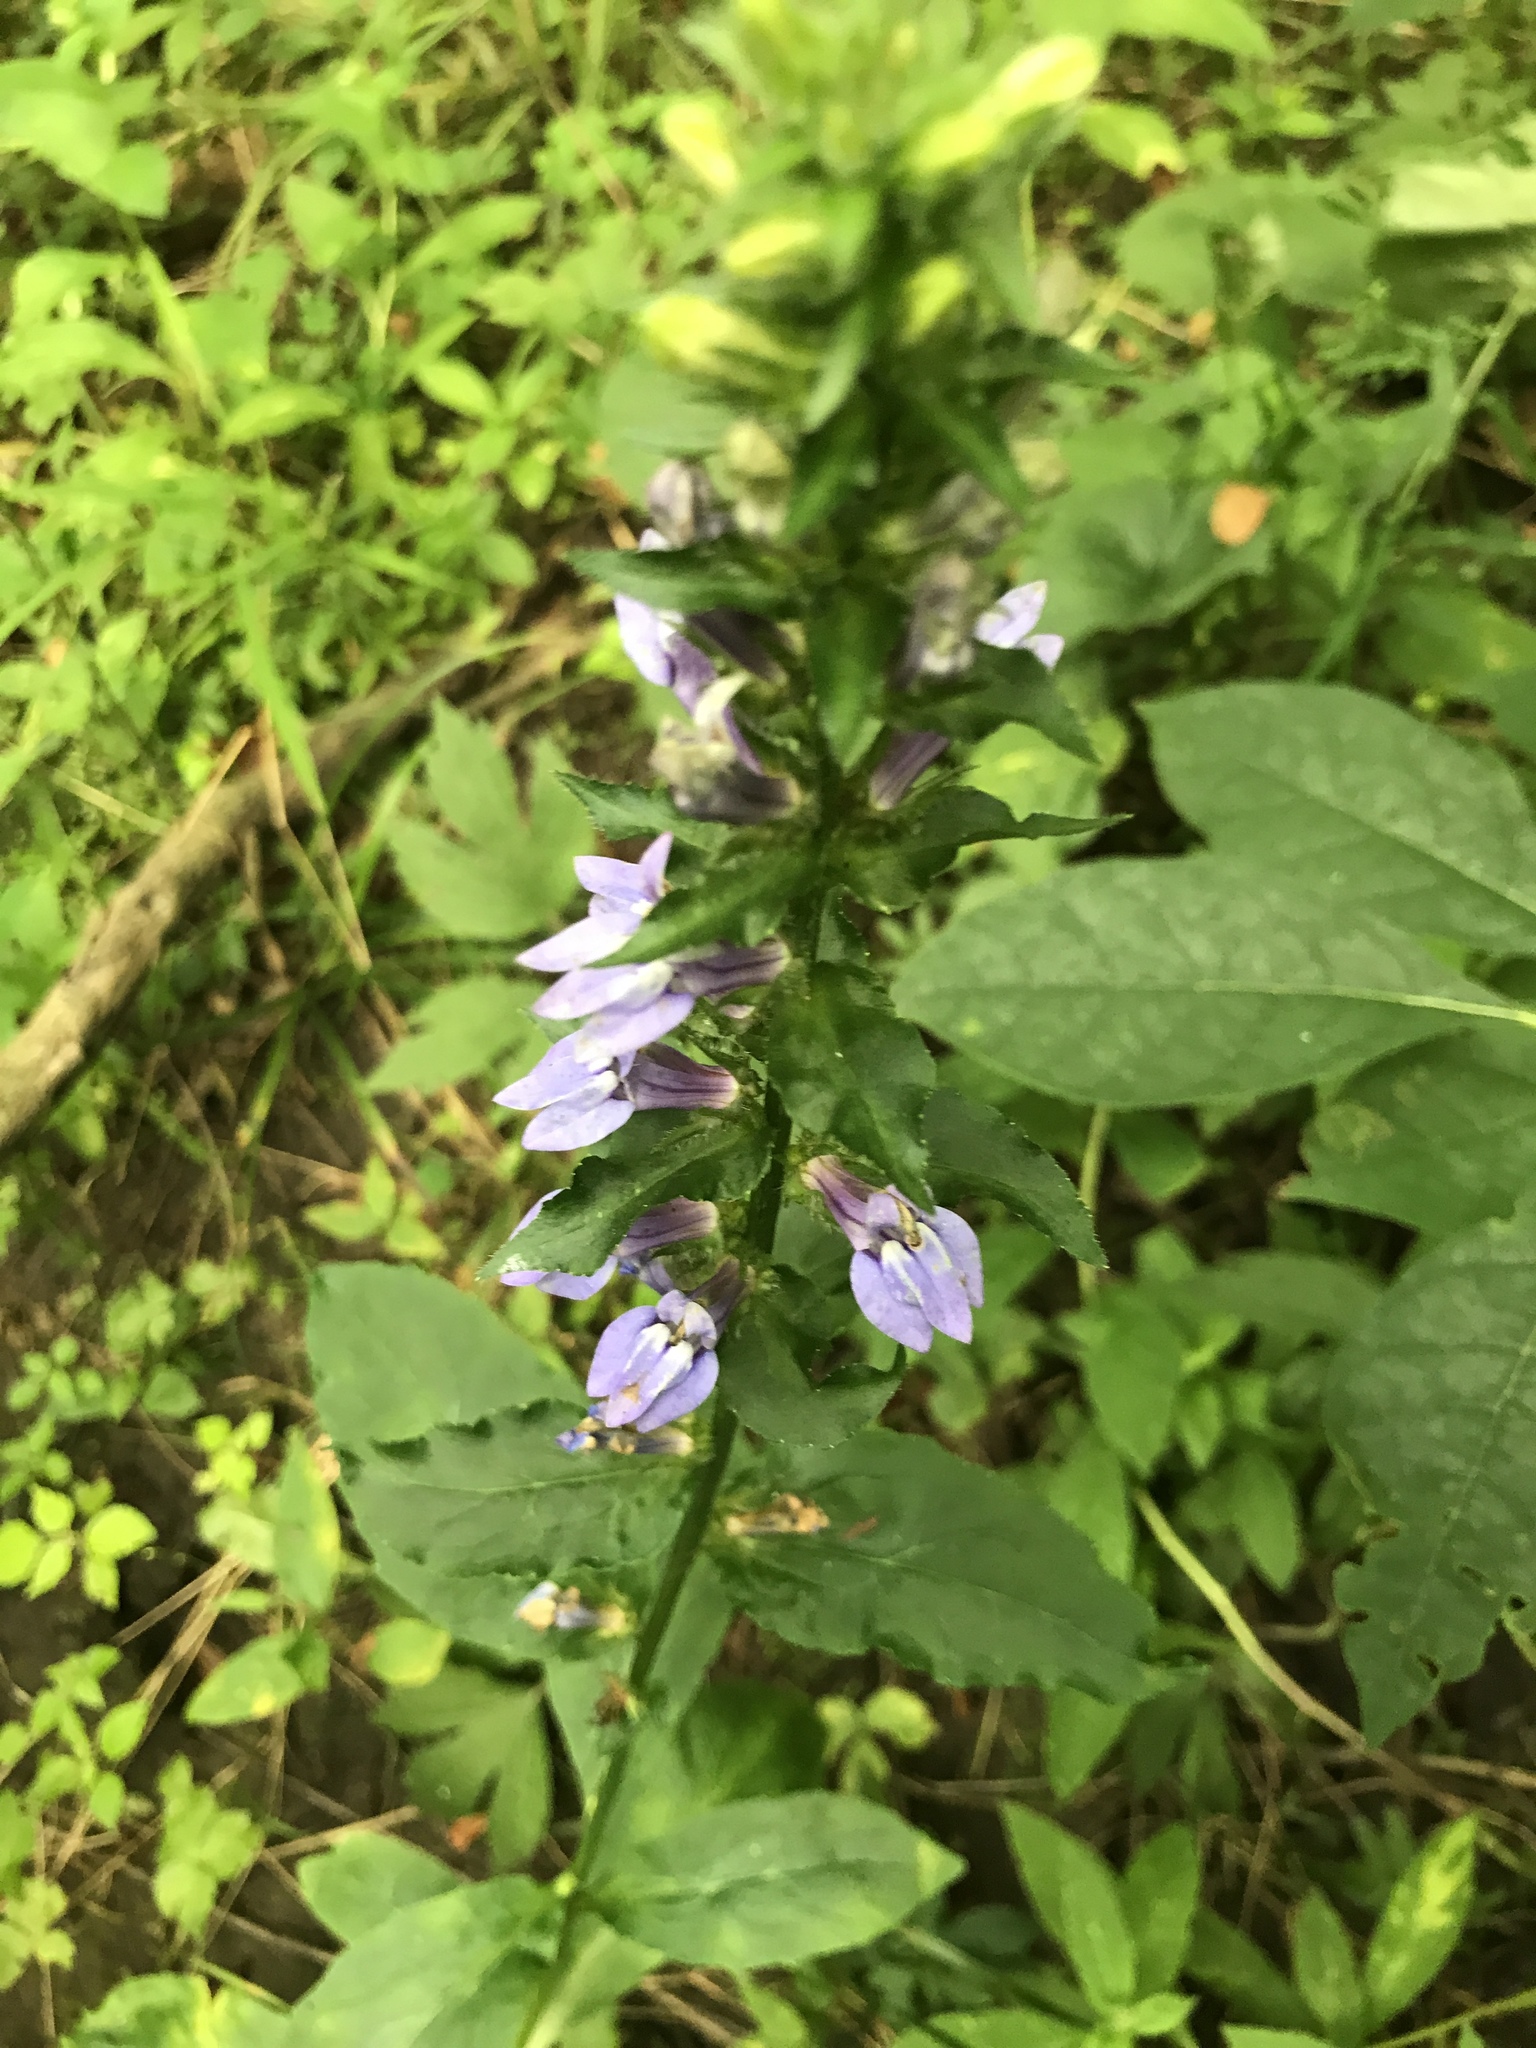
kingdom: Plantae
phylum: Tracheophyta
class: Magnoliopsida
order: Asterales
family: Campanulaceae
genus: Lobelia
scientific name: Lobelia siphilitica
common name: Great lobelia
